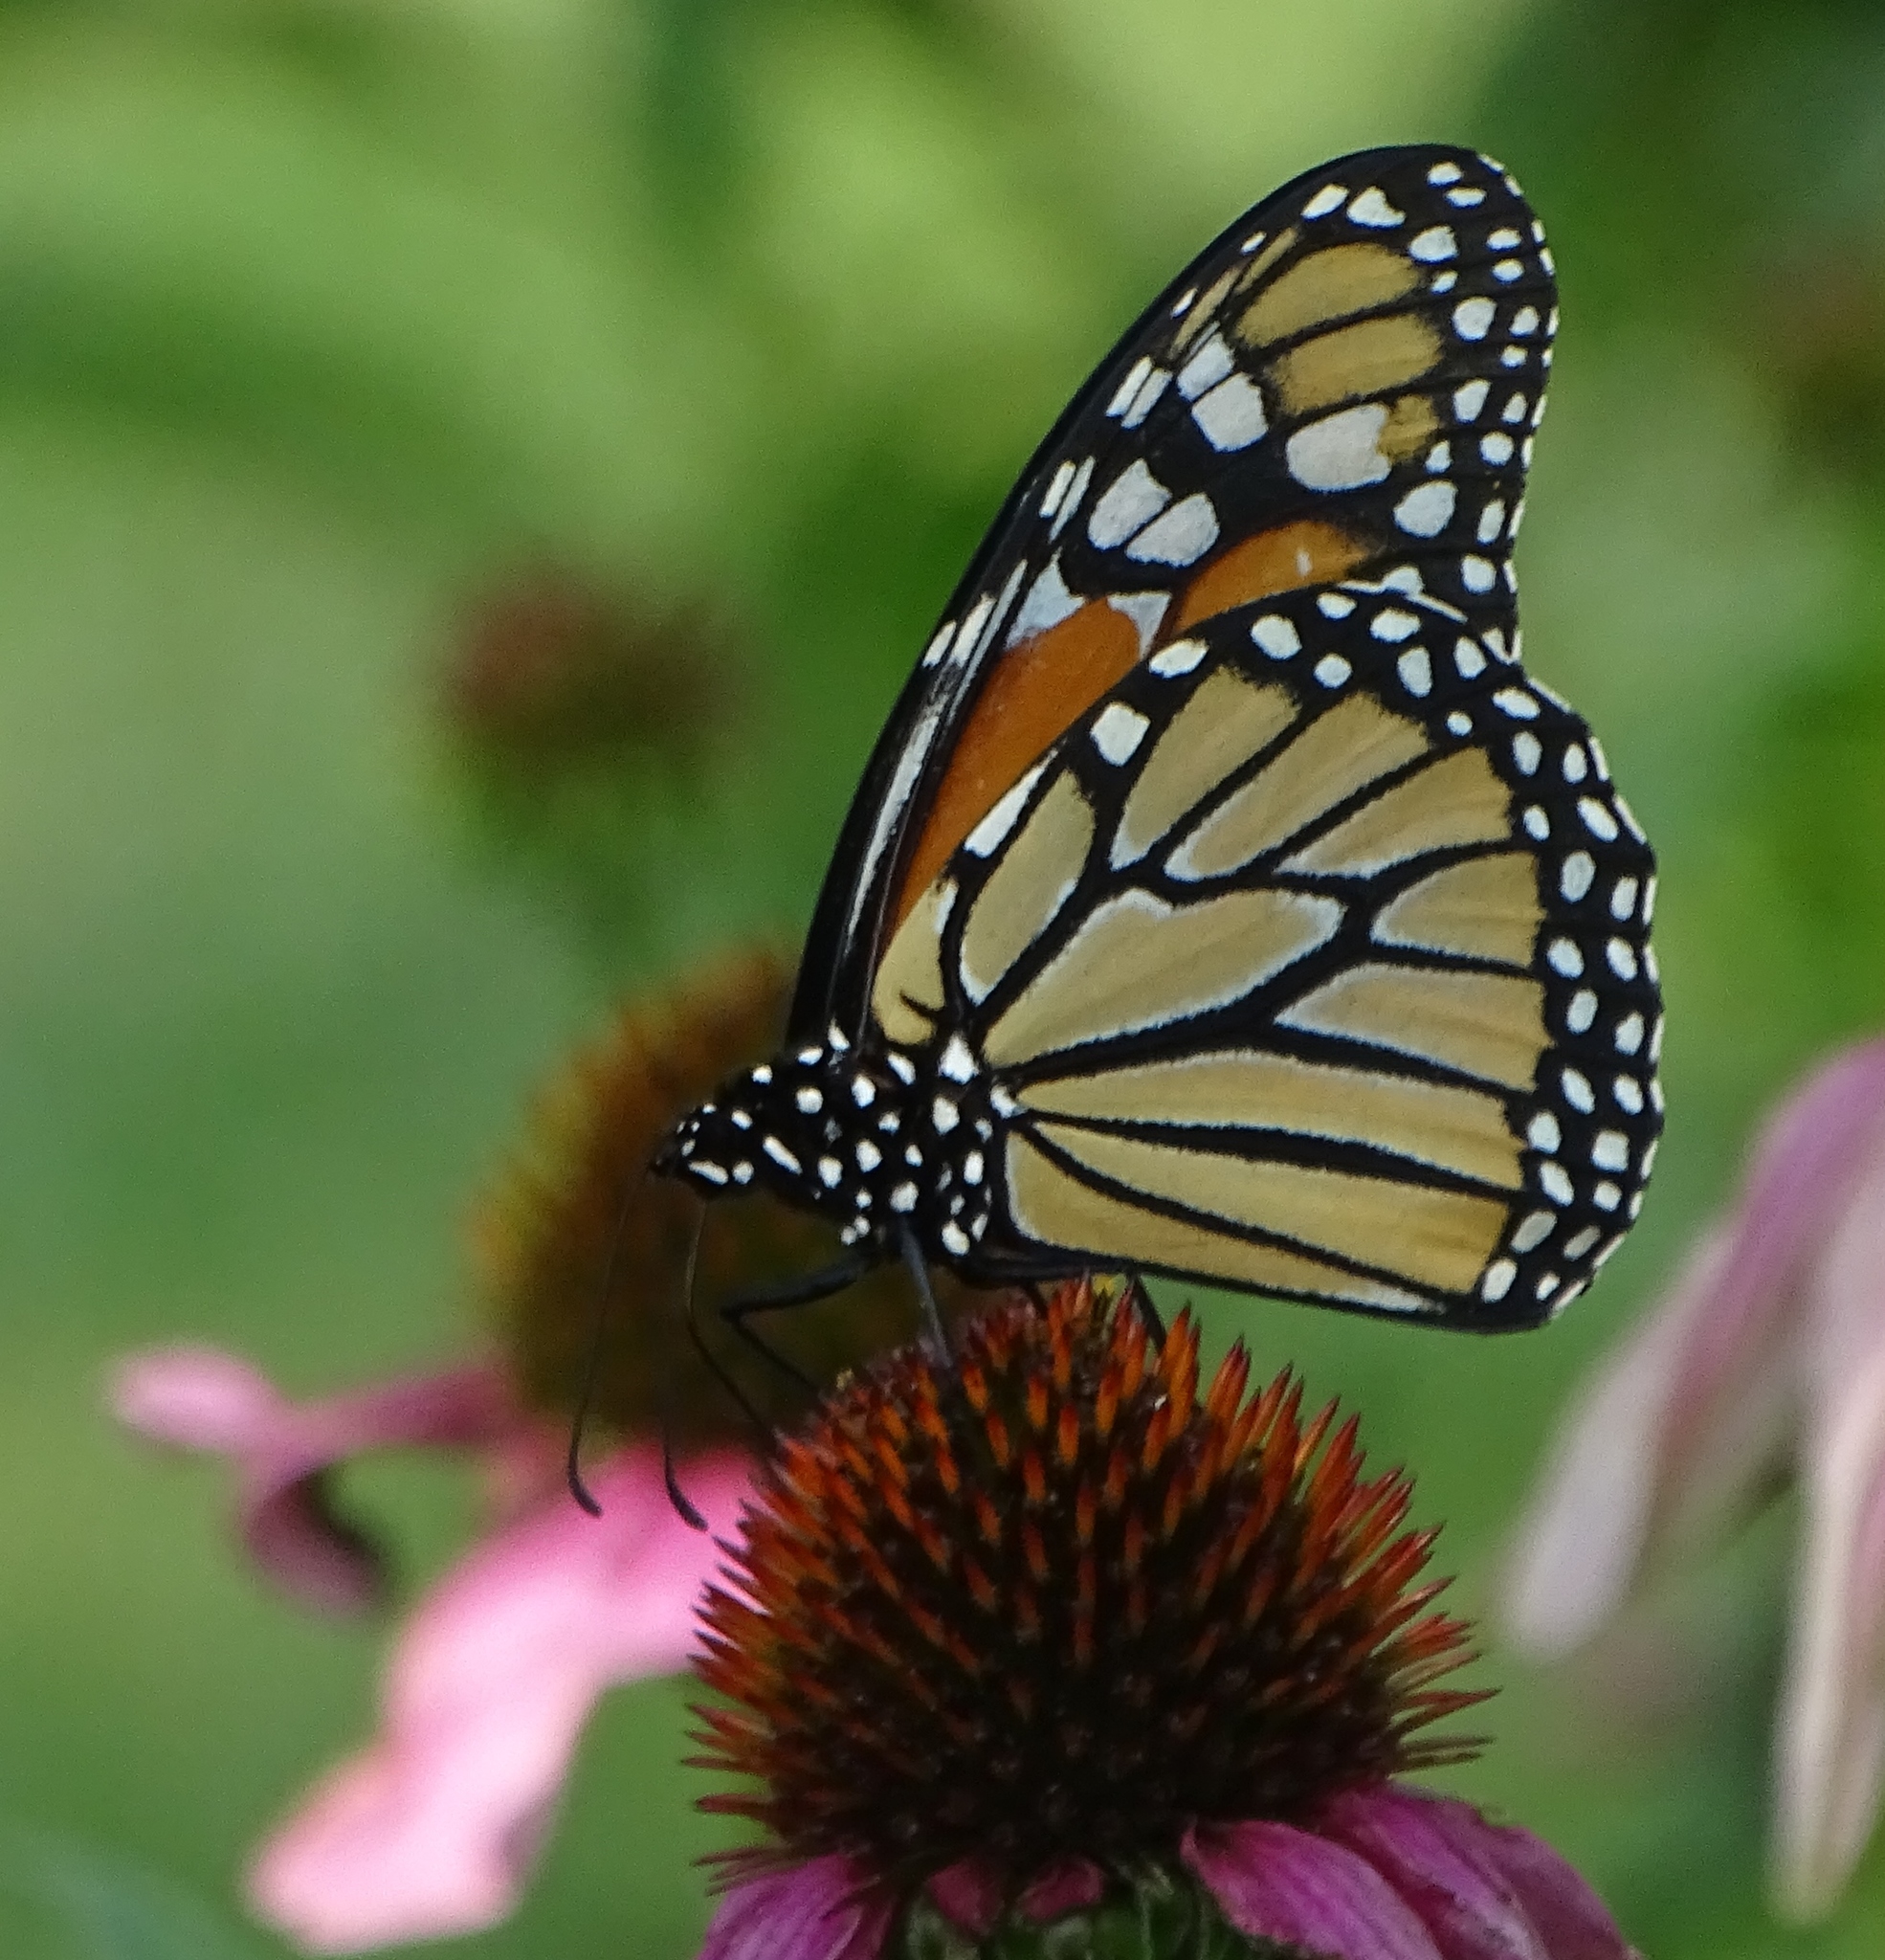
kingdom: Animalia
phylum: Arthropoda
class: Insecta
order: Lepidoptera
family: Nymphalidae
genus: Danaus
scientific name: Danaus plexippus
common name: Monarch
